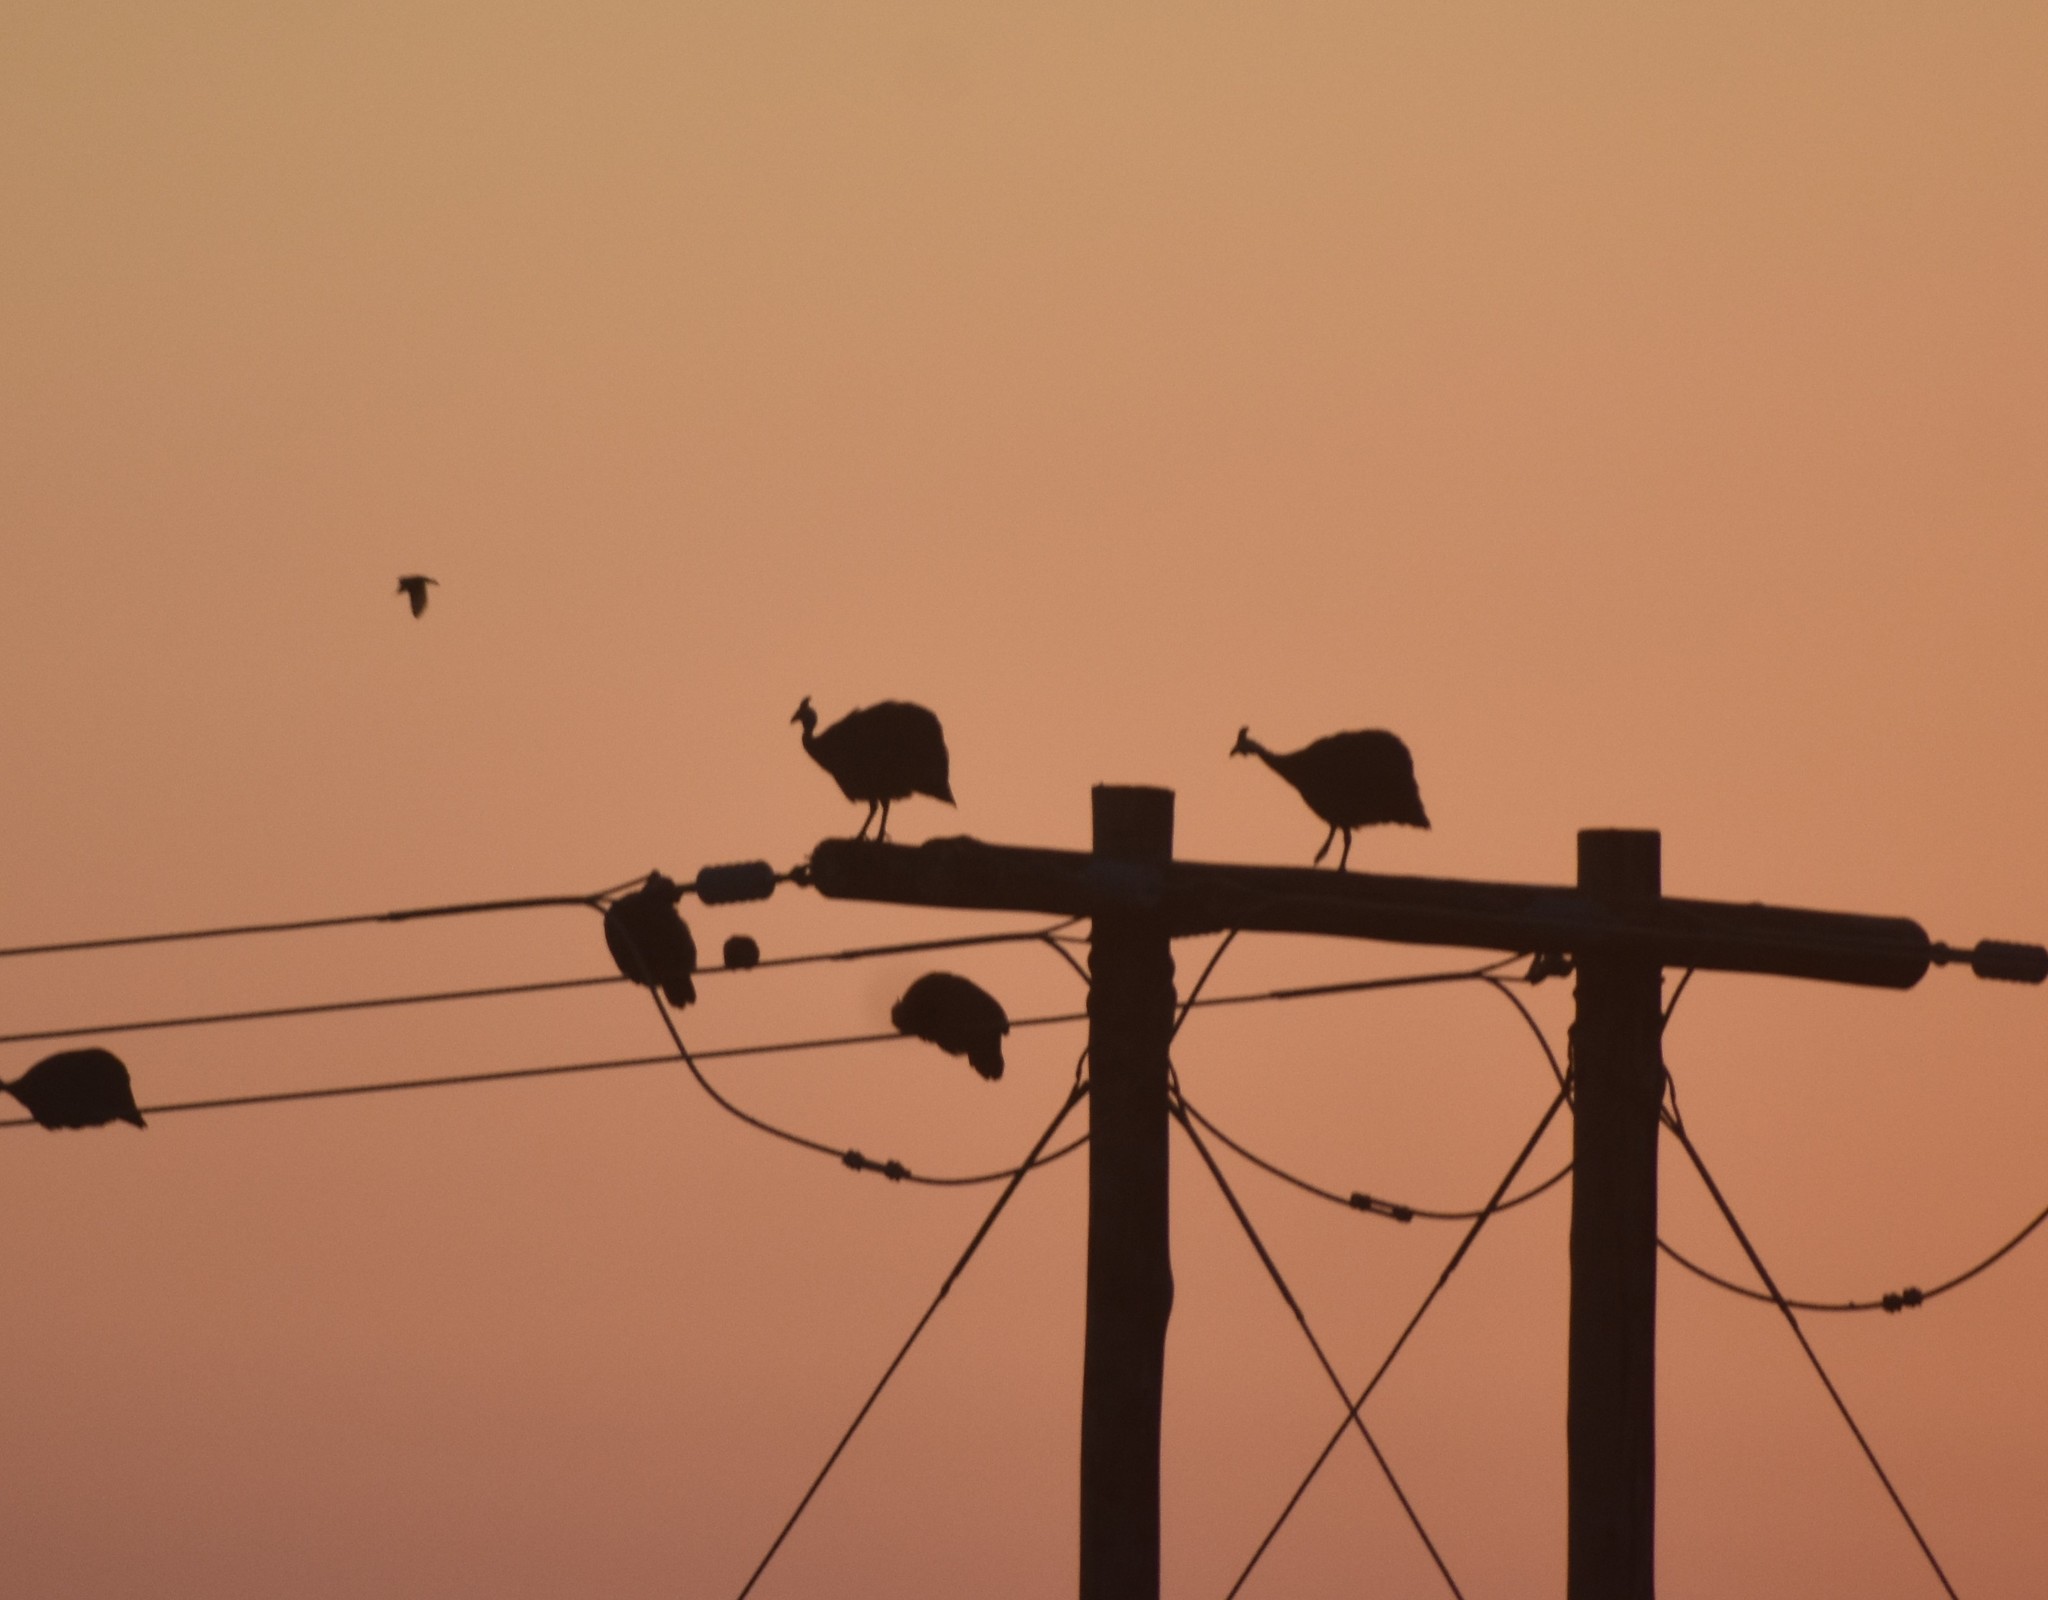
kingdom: Animalia
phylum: Chordata
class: Aves
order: Galliformes
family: Numididae
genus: Numida
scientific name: Numida meleagris
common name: Helmeted guineafowl
